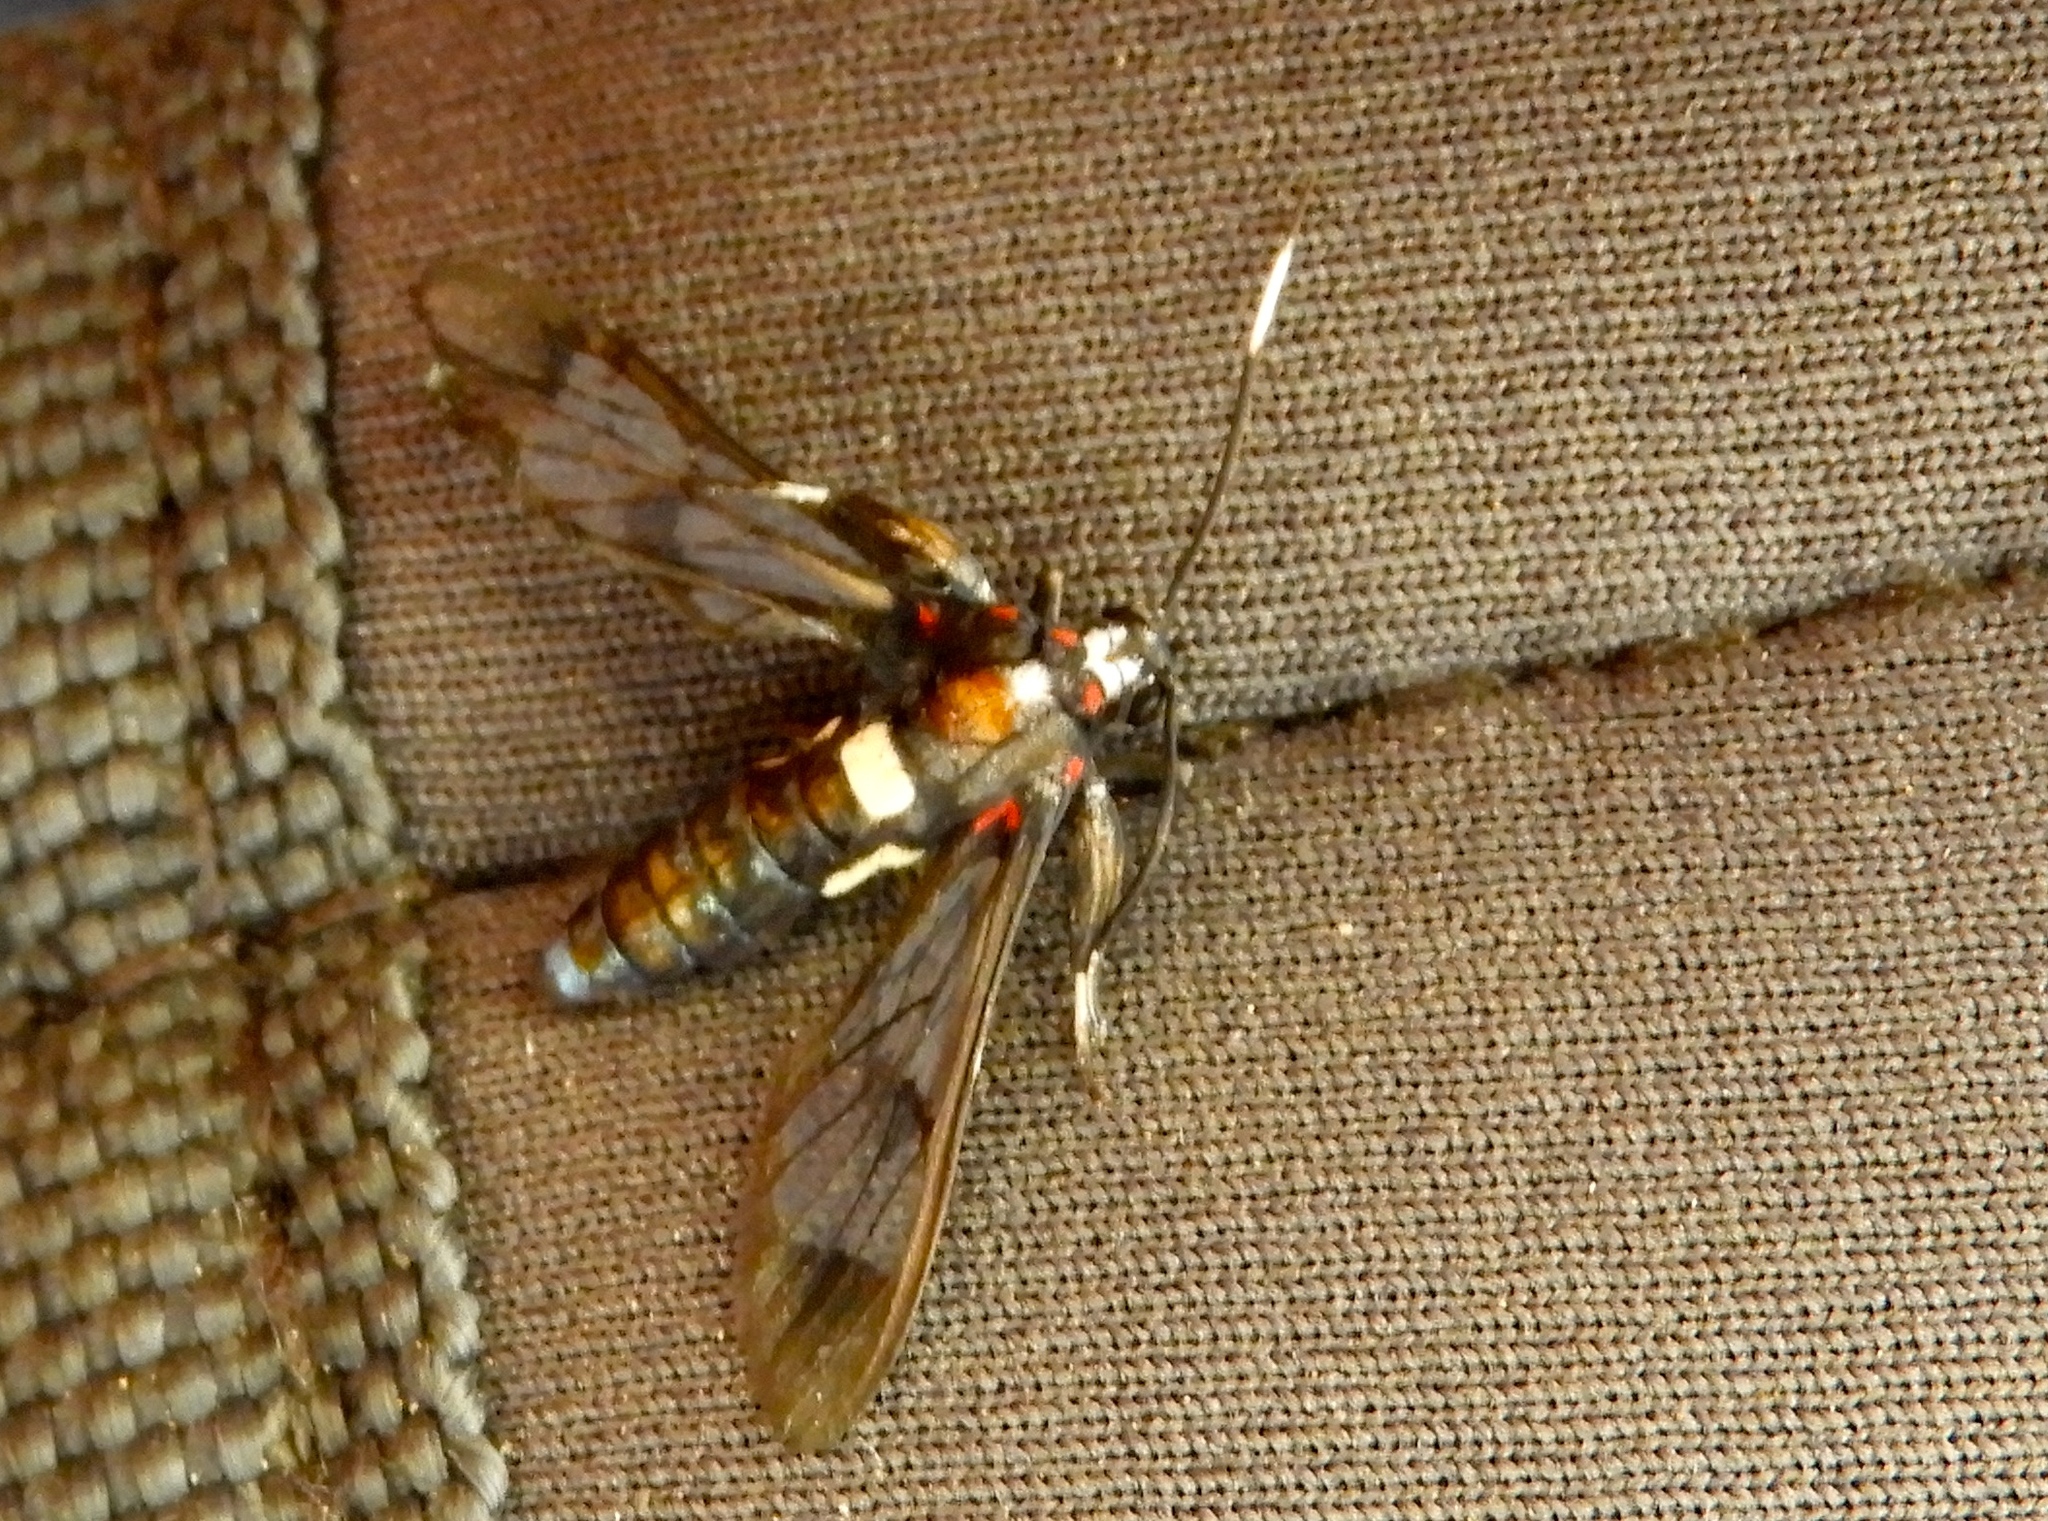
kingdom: Animalia
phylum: Arthropoda
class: Insecta
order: Lepidoptera
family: Erebidae
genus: Pheia
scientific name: Pheia albisigna
